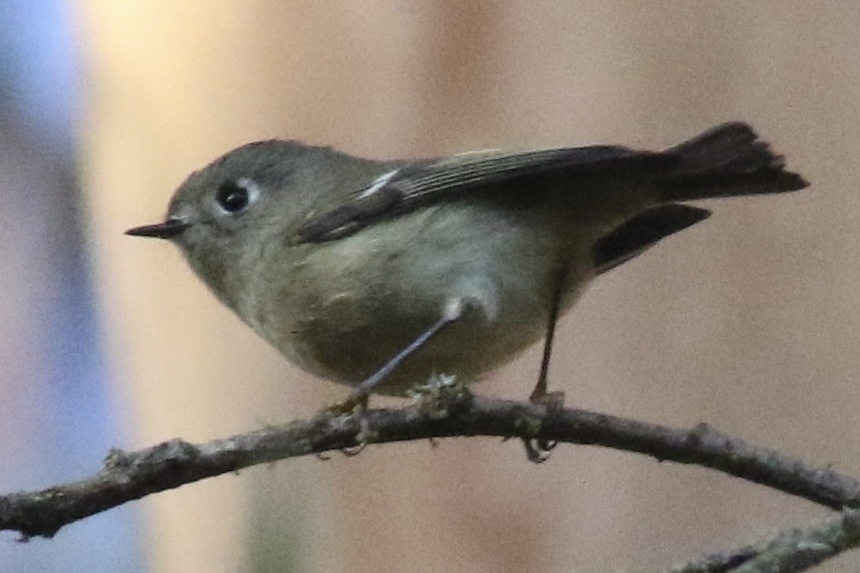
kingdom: Animalia
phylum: Chordata
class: Aves
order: Passeriformes
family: Regulidae
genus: Regulus
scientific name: Regulus calendula
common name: Ruby-crowned kinglet
